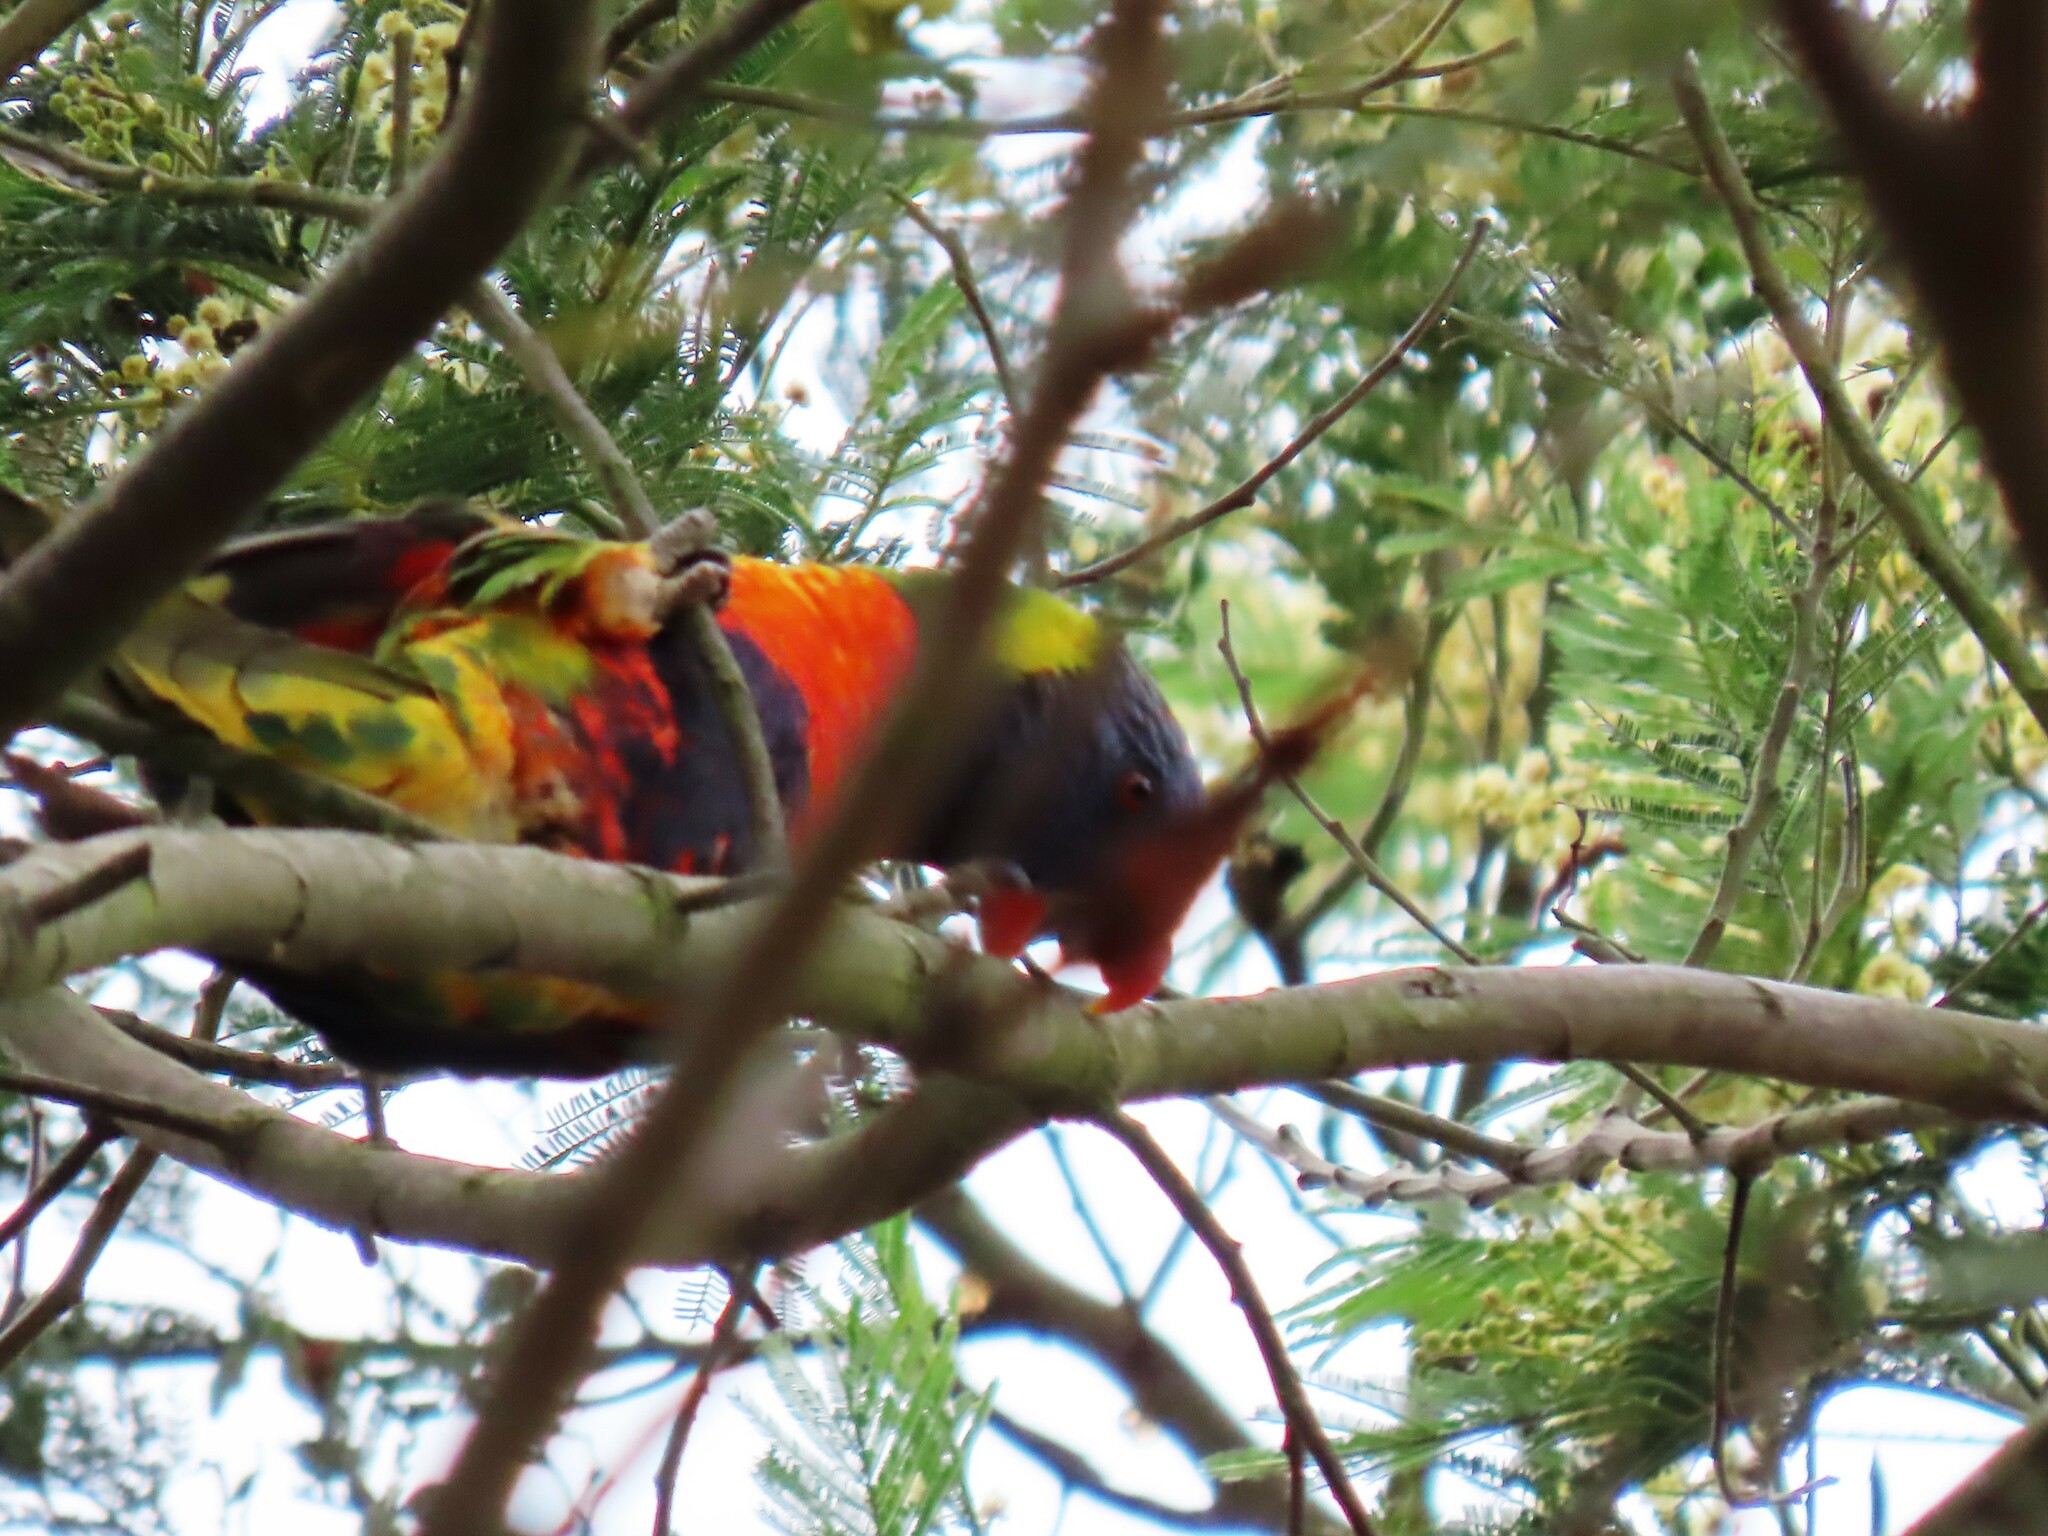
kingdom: Animalia
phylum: Chordata
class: Aves
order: Psittaciformes
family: Psittacidae
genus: Trichoglossus
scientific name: Trichoglossus haematodus
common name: Coconut lorikeet
